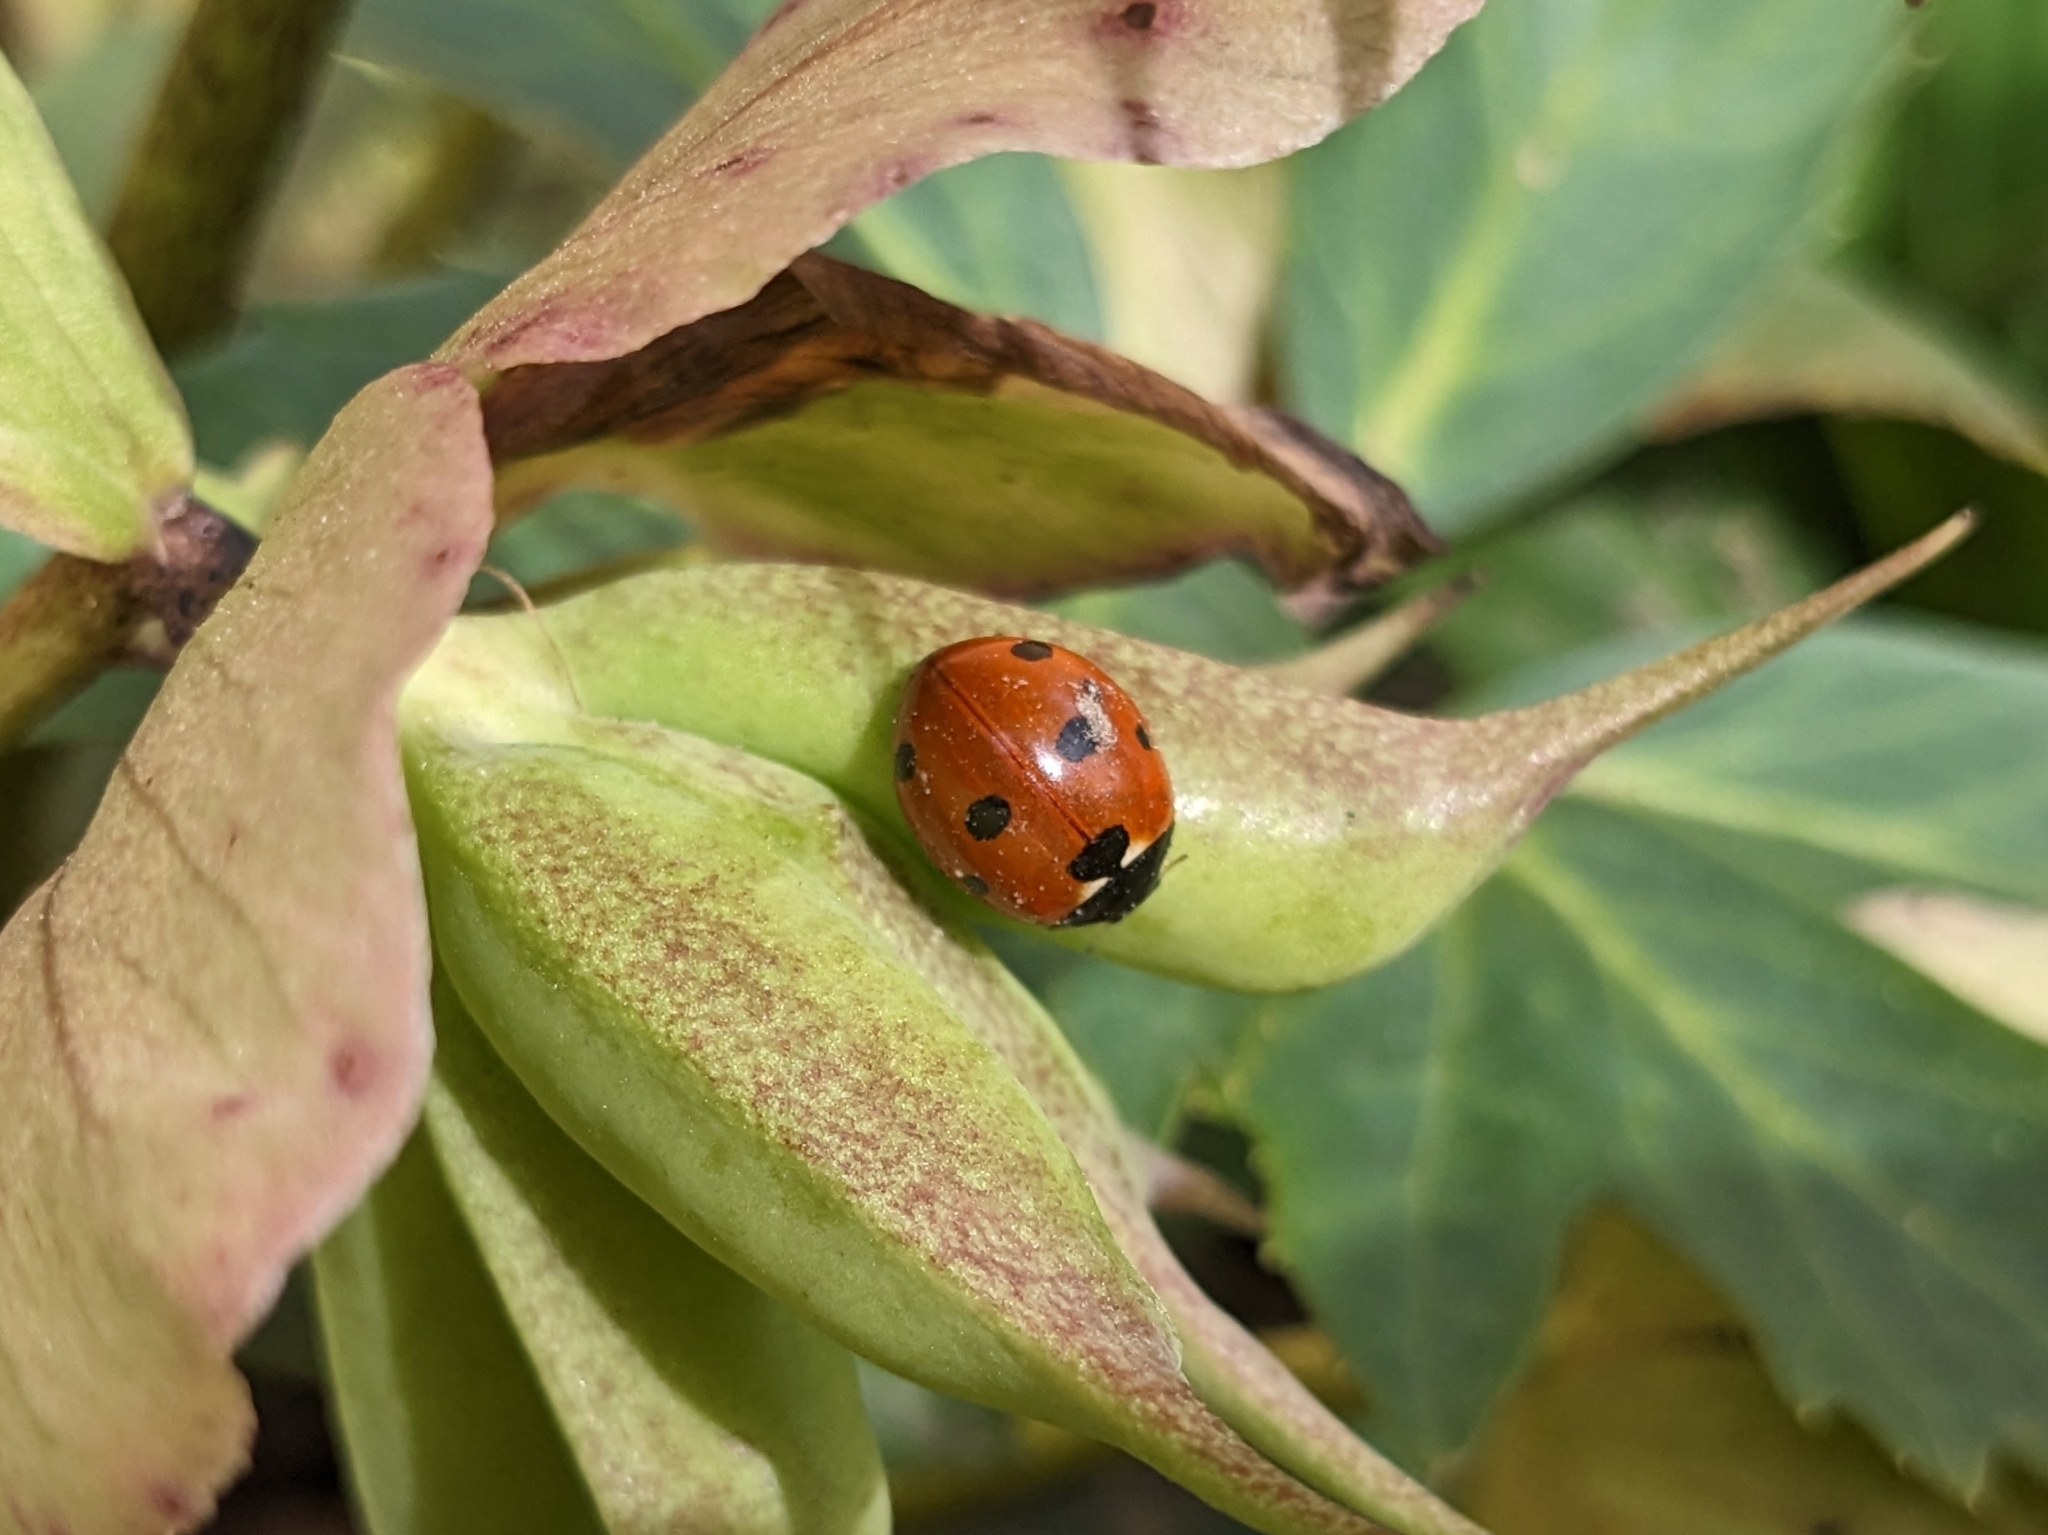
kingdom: Animalia
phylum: Arthropoda
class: Insecta
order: Coleoptera
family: Coccinellidae
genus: Coccinella
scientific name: Coccinella septempunctata
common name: Sevenspotted lady beetle
